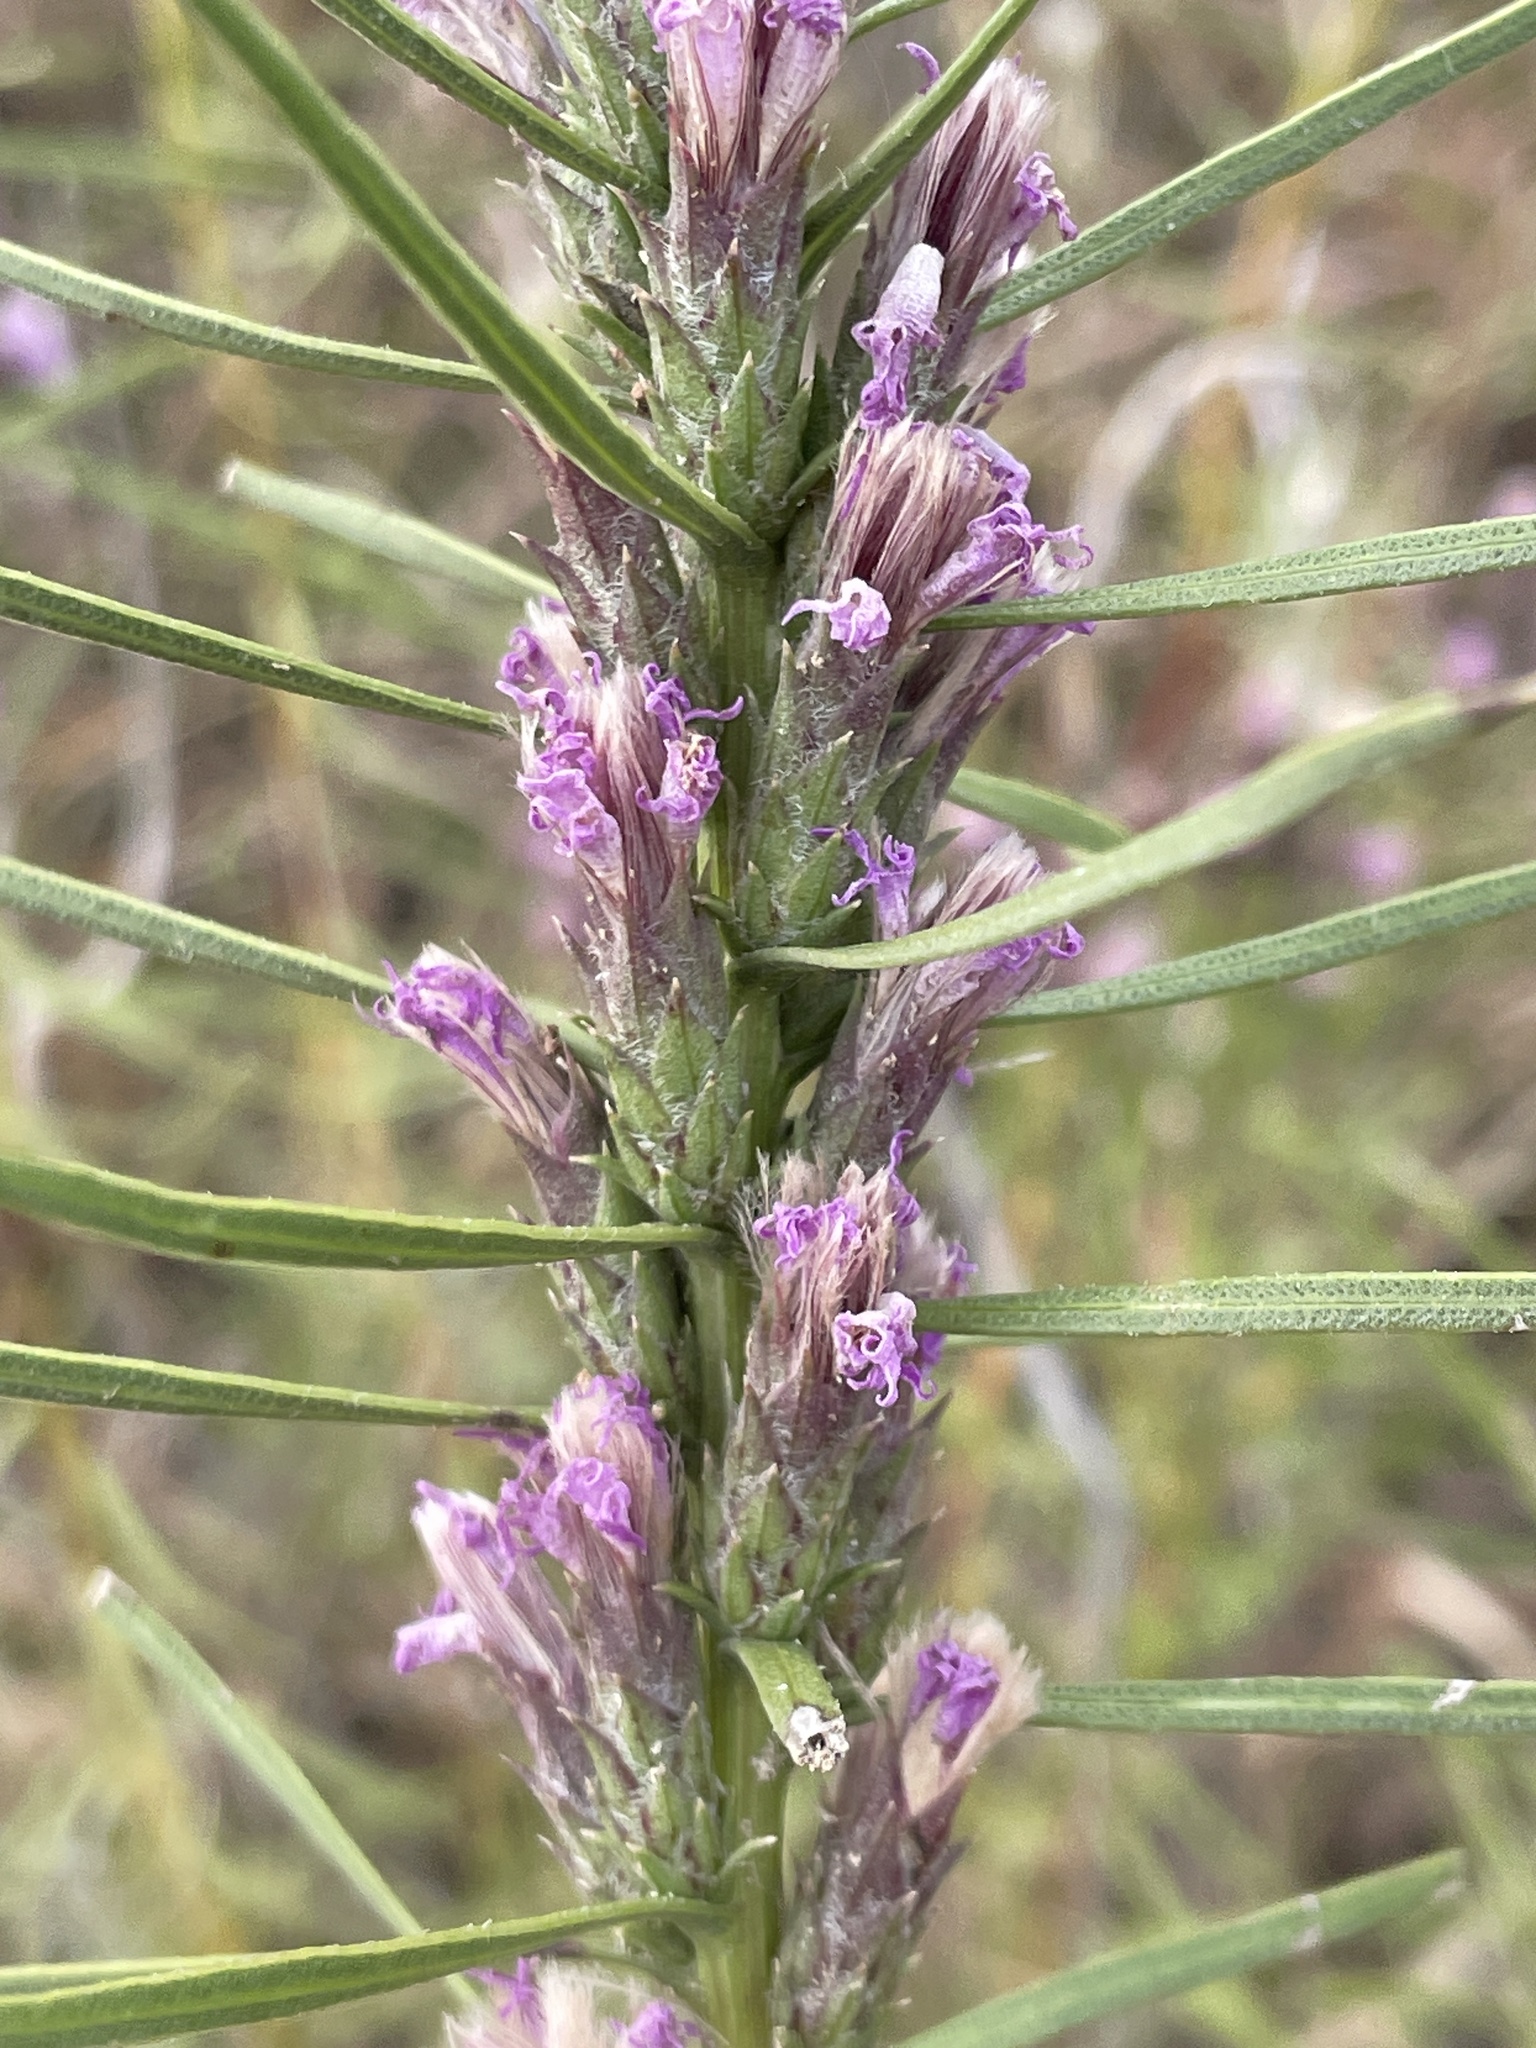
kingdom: Plantae
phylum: Tracheophyta
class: Magnoliopsida
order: Asterales
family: Asteraceae
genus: Liatris
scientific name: Liatris punctata
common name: Dotted gayfeather
